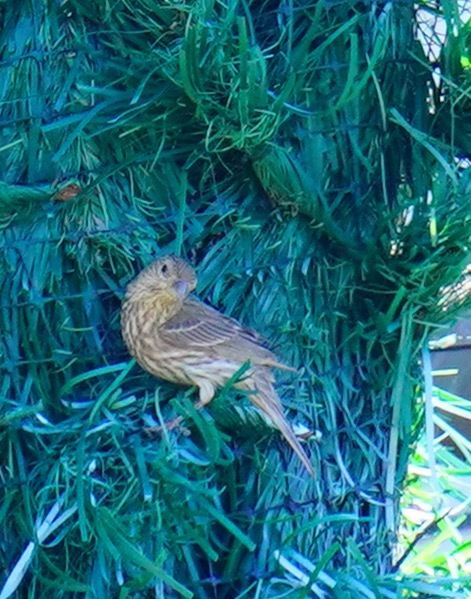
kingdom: Animalia
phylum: Chordata
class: Aves
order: Passeriformes
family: Fringillidae
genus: Haemorhous
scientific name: Haemorhous mexicanus
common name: House finch
